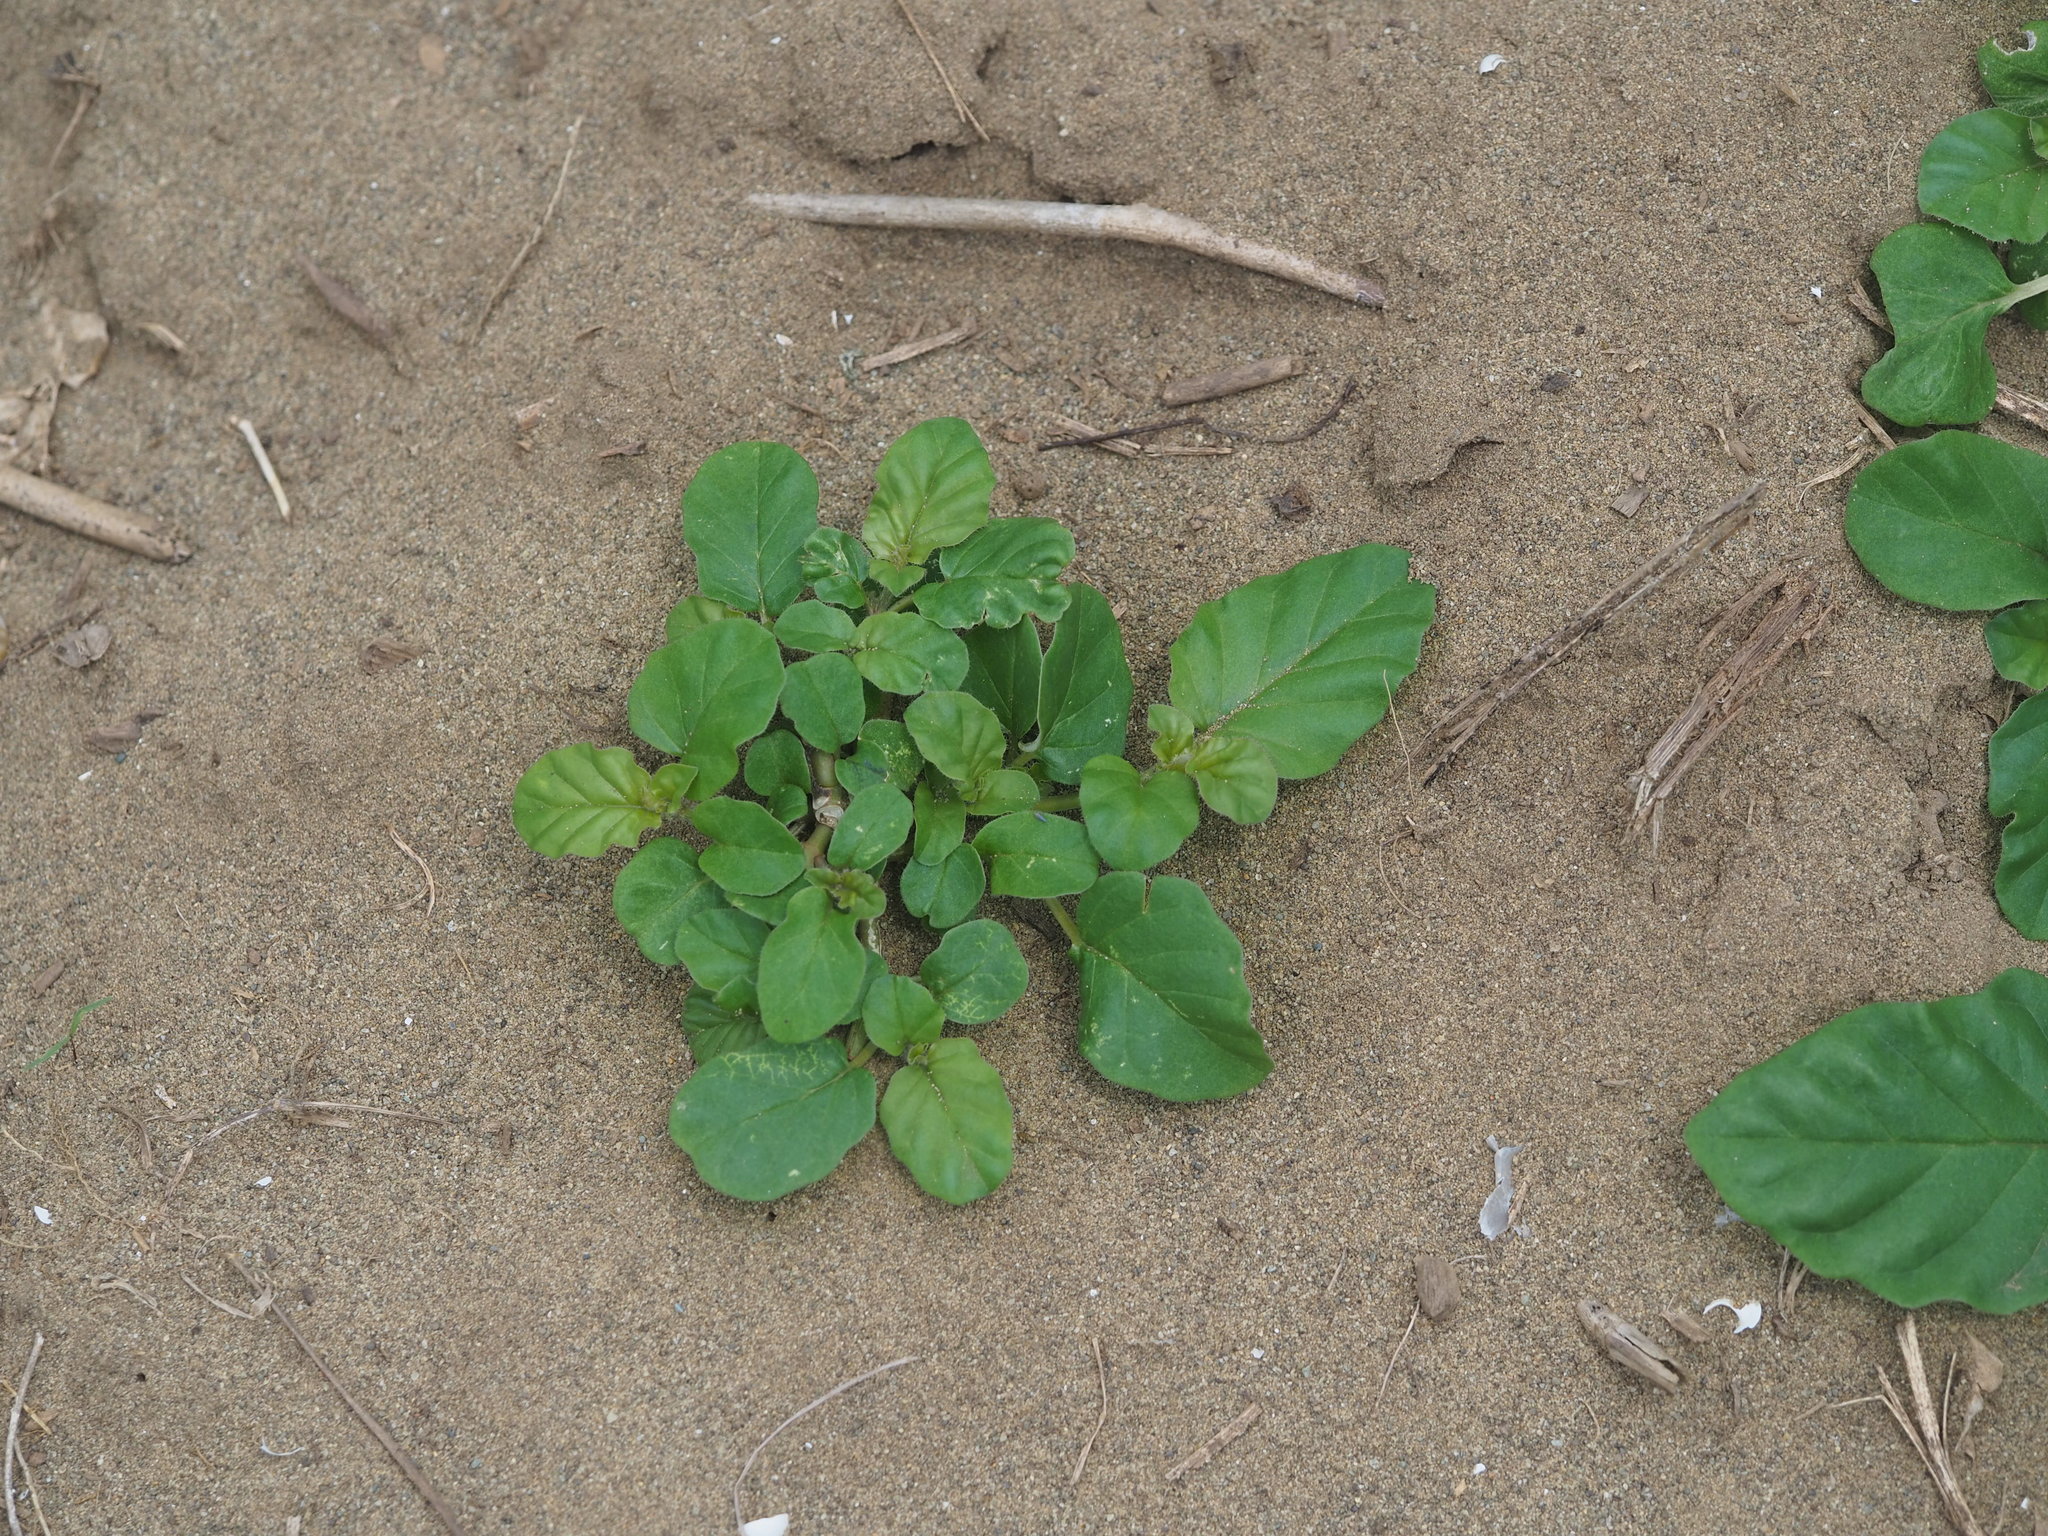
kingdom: Plantae
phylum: Tracheophyta
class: Magnoliopsida
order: Caryophyllales
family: Nyctaginaceae
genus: Boerhavia
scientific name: Boerhavia coccinea
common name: Scarlet spiderling
